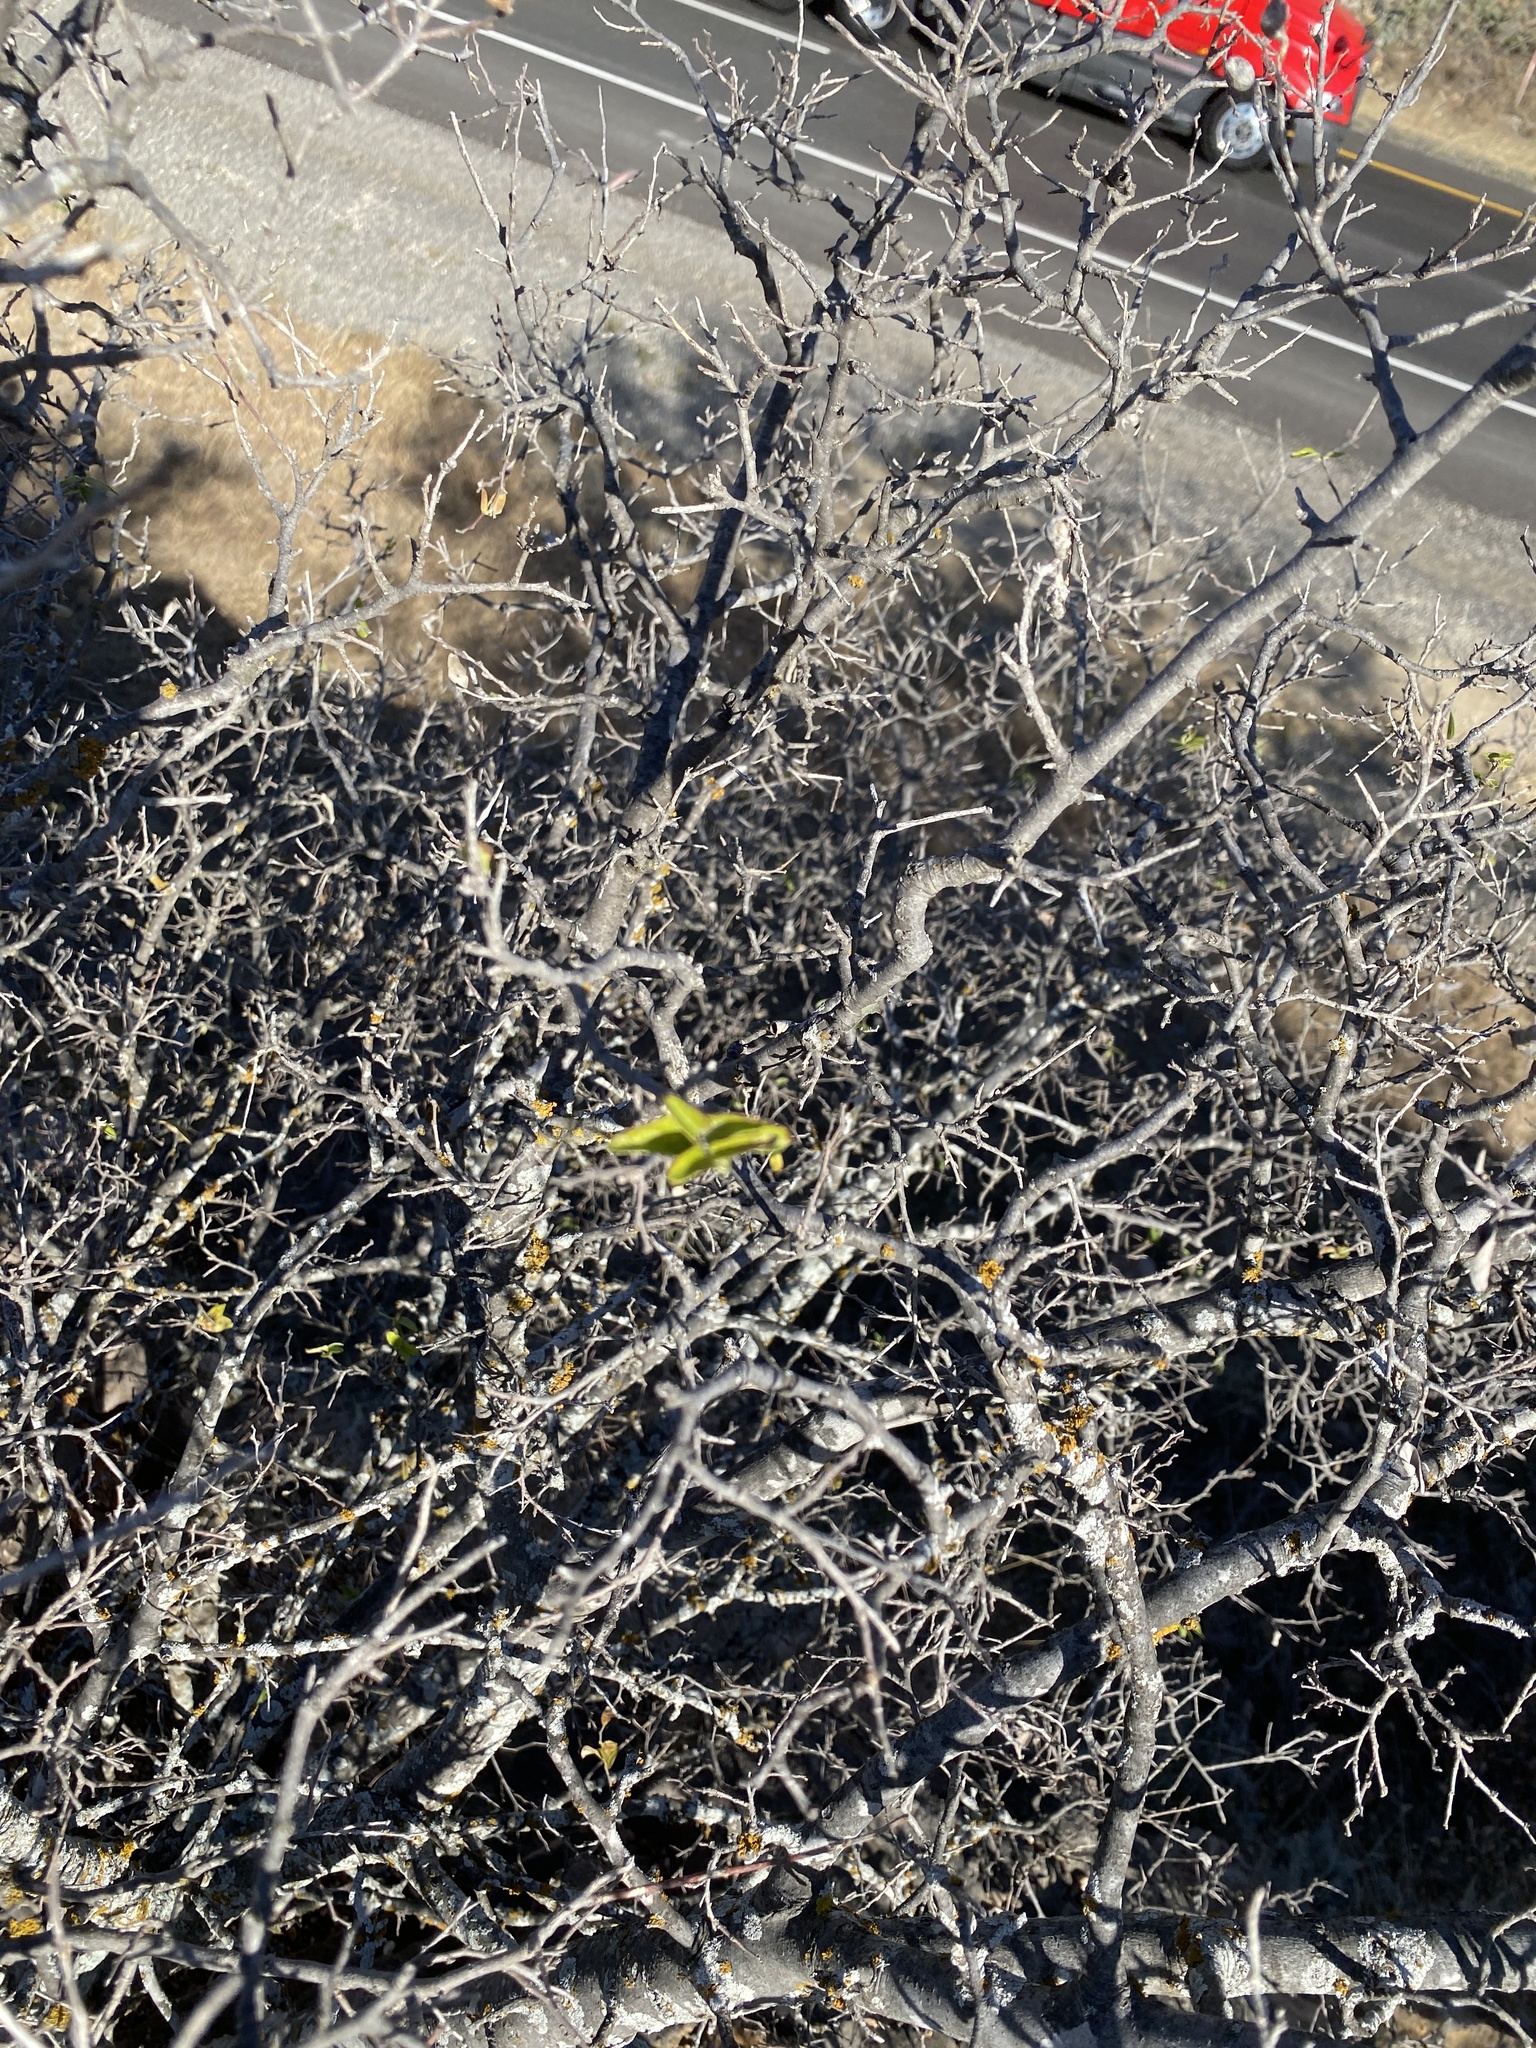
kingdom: Plantae
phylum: Tracheophyta
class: Magnoliopsida
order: Sapindales
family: Anacardiaceae
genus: Rhus
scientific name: Rhus microphylla
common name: Desert sumac
